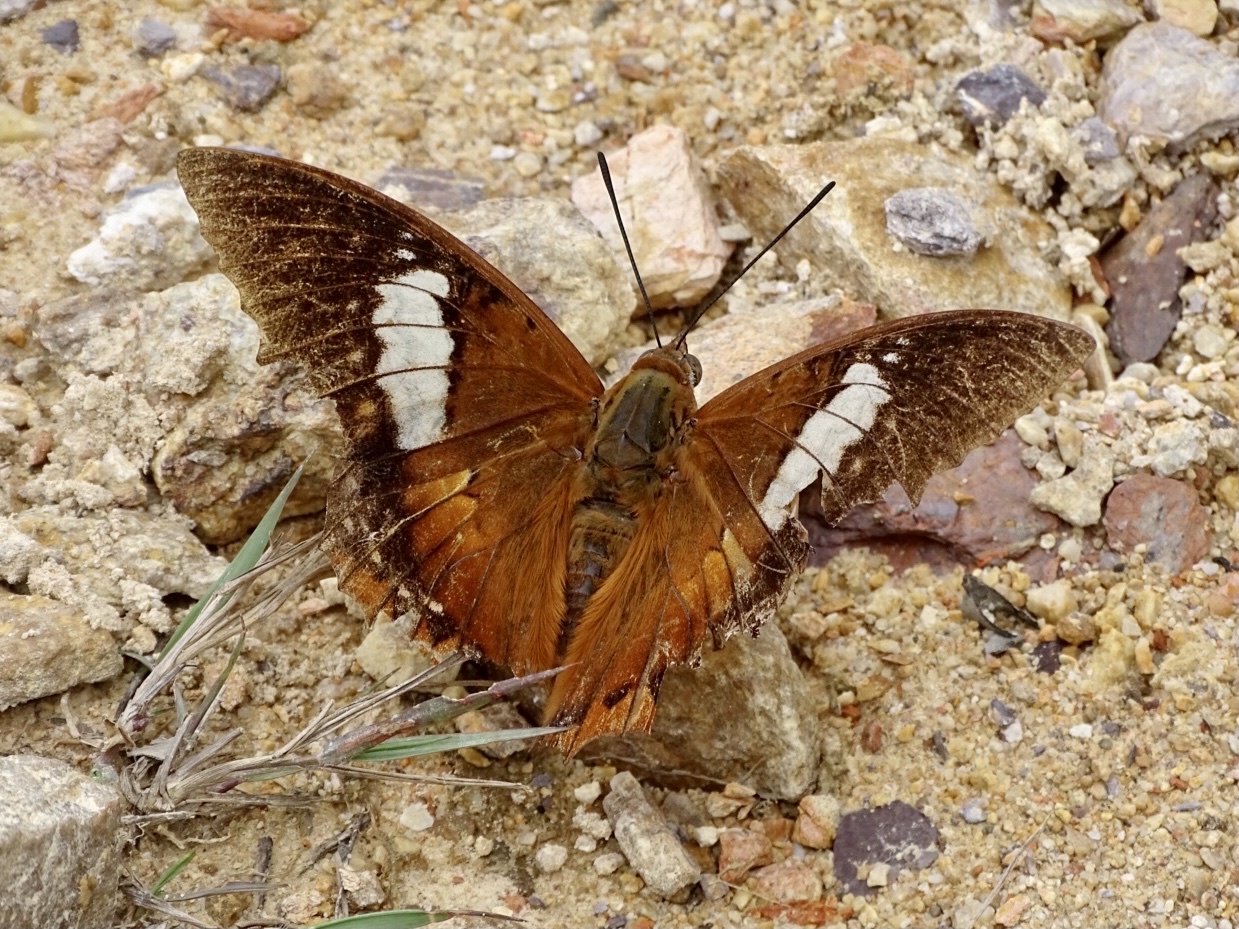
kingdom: Animalia
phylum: Arthropoda
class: Insecta
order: Lepidoptera
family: Nymphalidae
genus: Charaxes
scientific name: Charaxes bernardus
